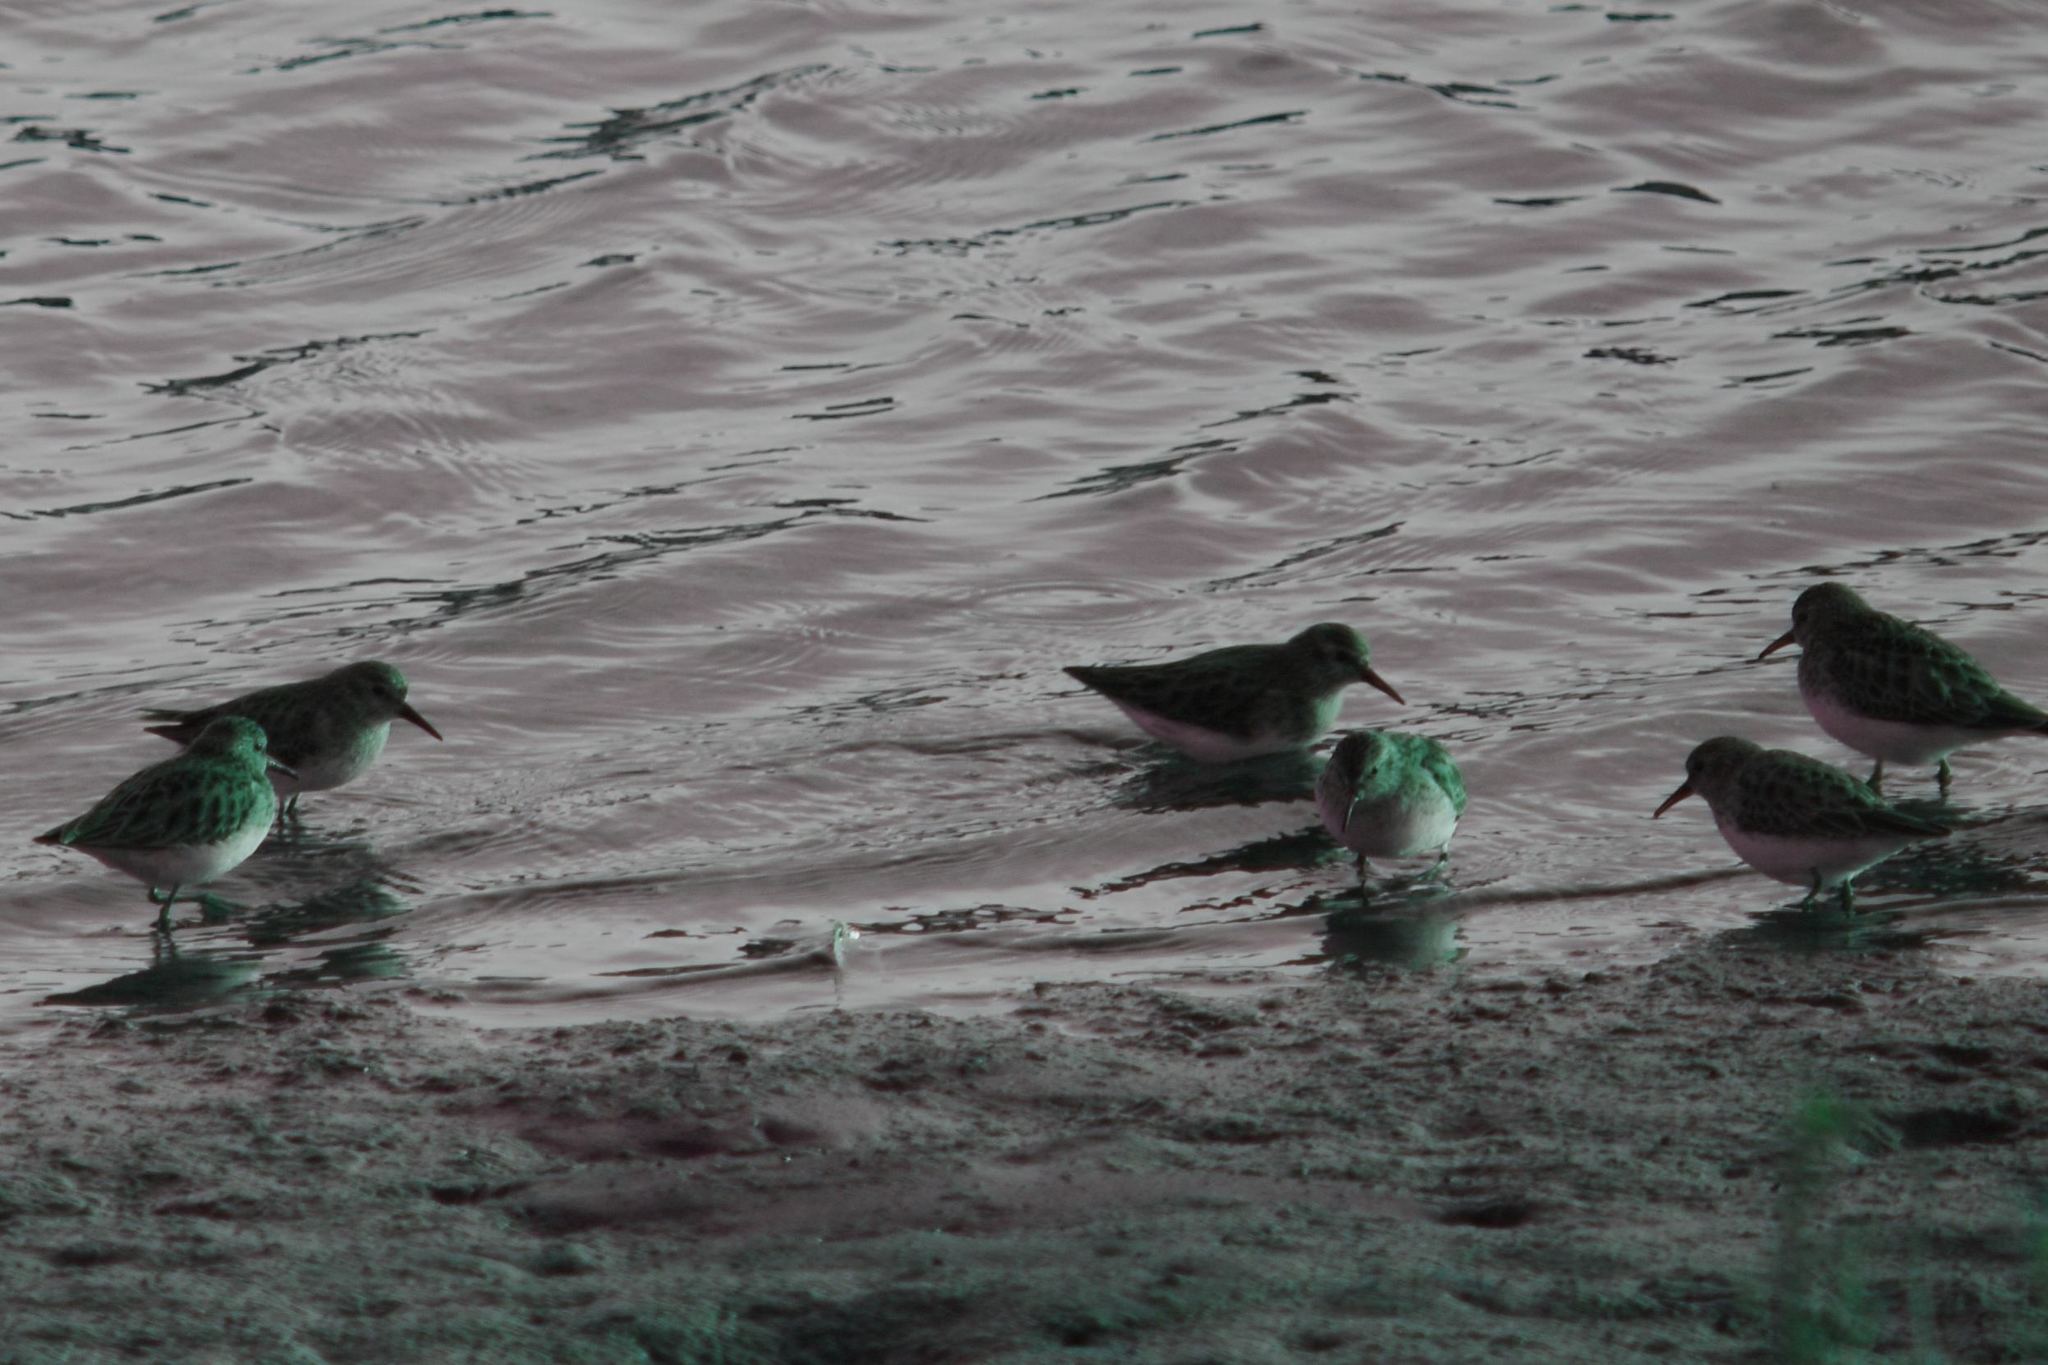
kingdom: Animalia
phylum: Chordata
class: Aves
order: Charadriiformes
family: Scolopacidae
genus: Calidris
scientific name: Calidris minutilla
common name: Least sandpiper
